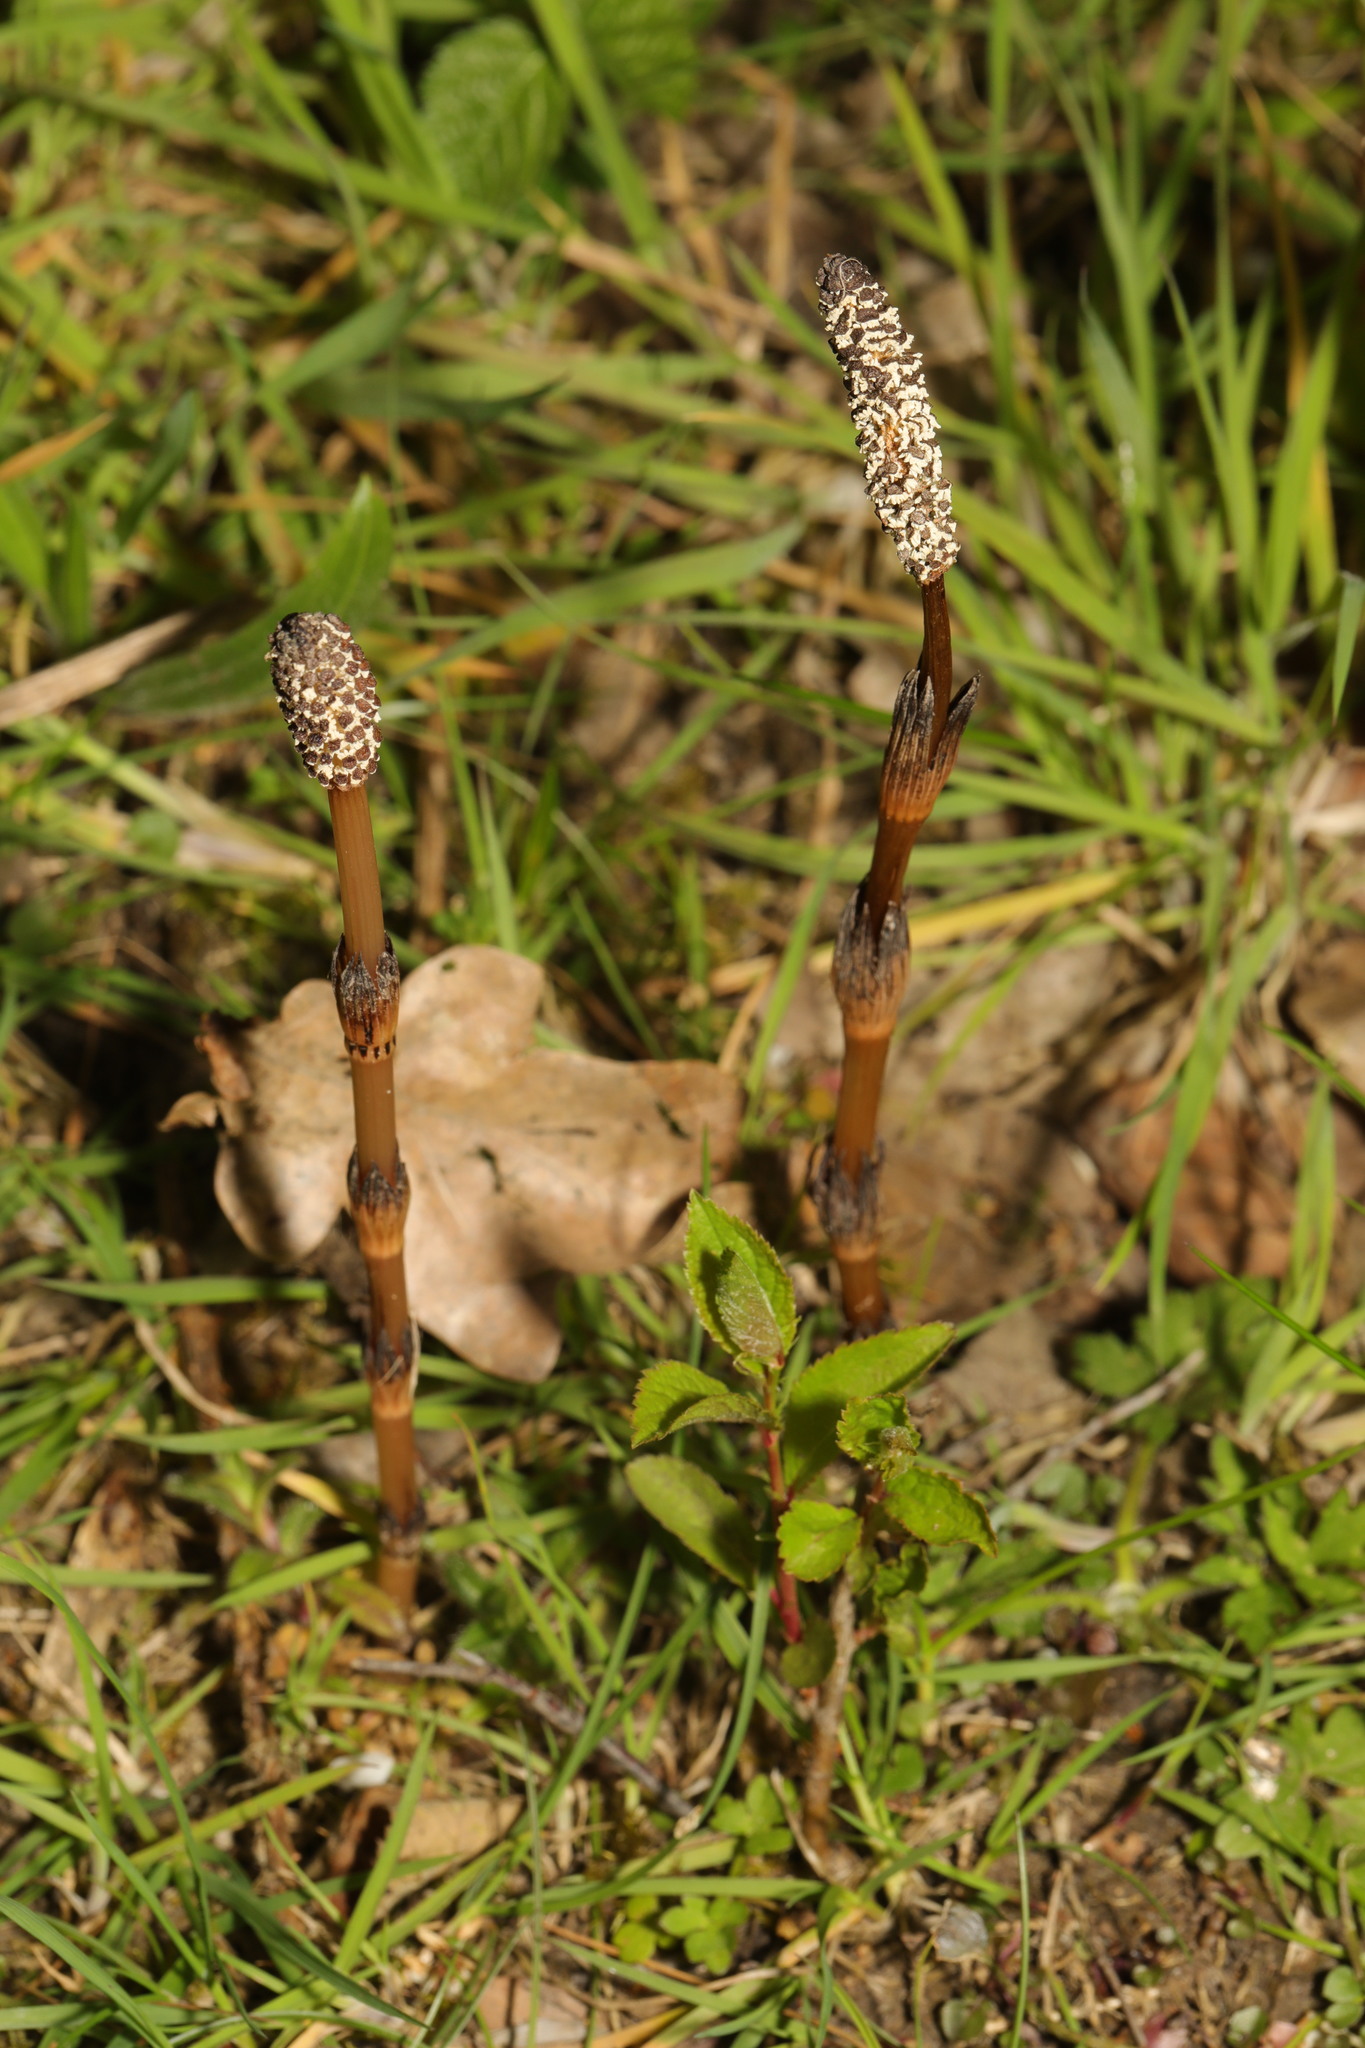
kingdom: Plantae
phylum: Tracheophyta
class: Polypodiopsida
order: Equisetales
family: Equisetaceae
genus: Equisetum
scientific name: Equisetum arvense
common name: Field horsetail
